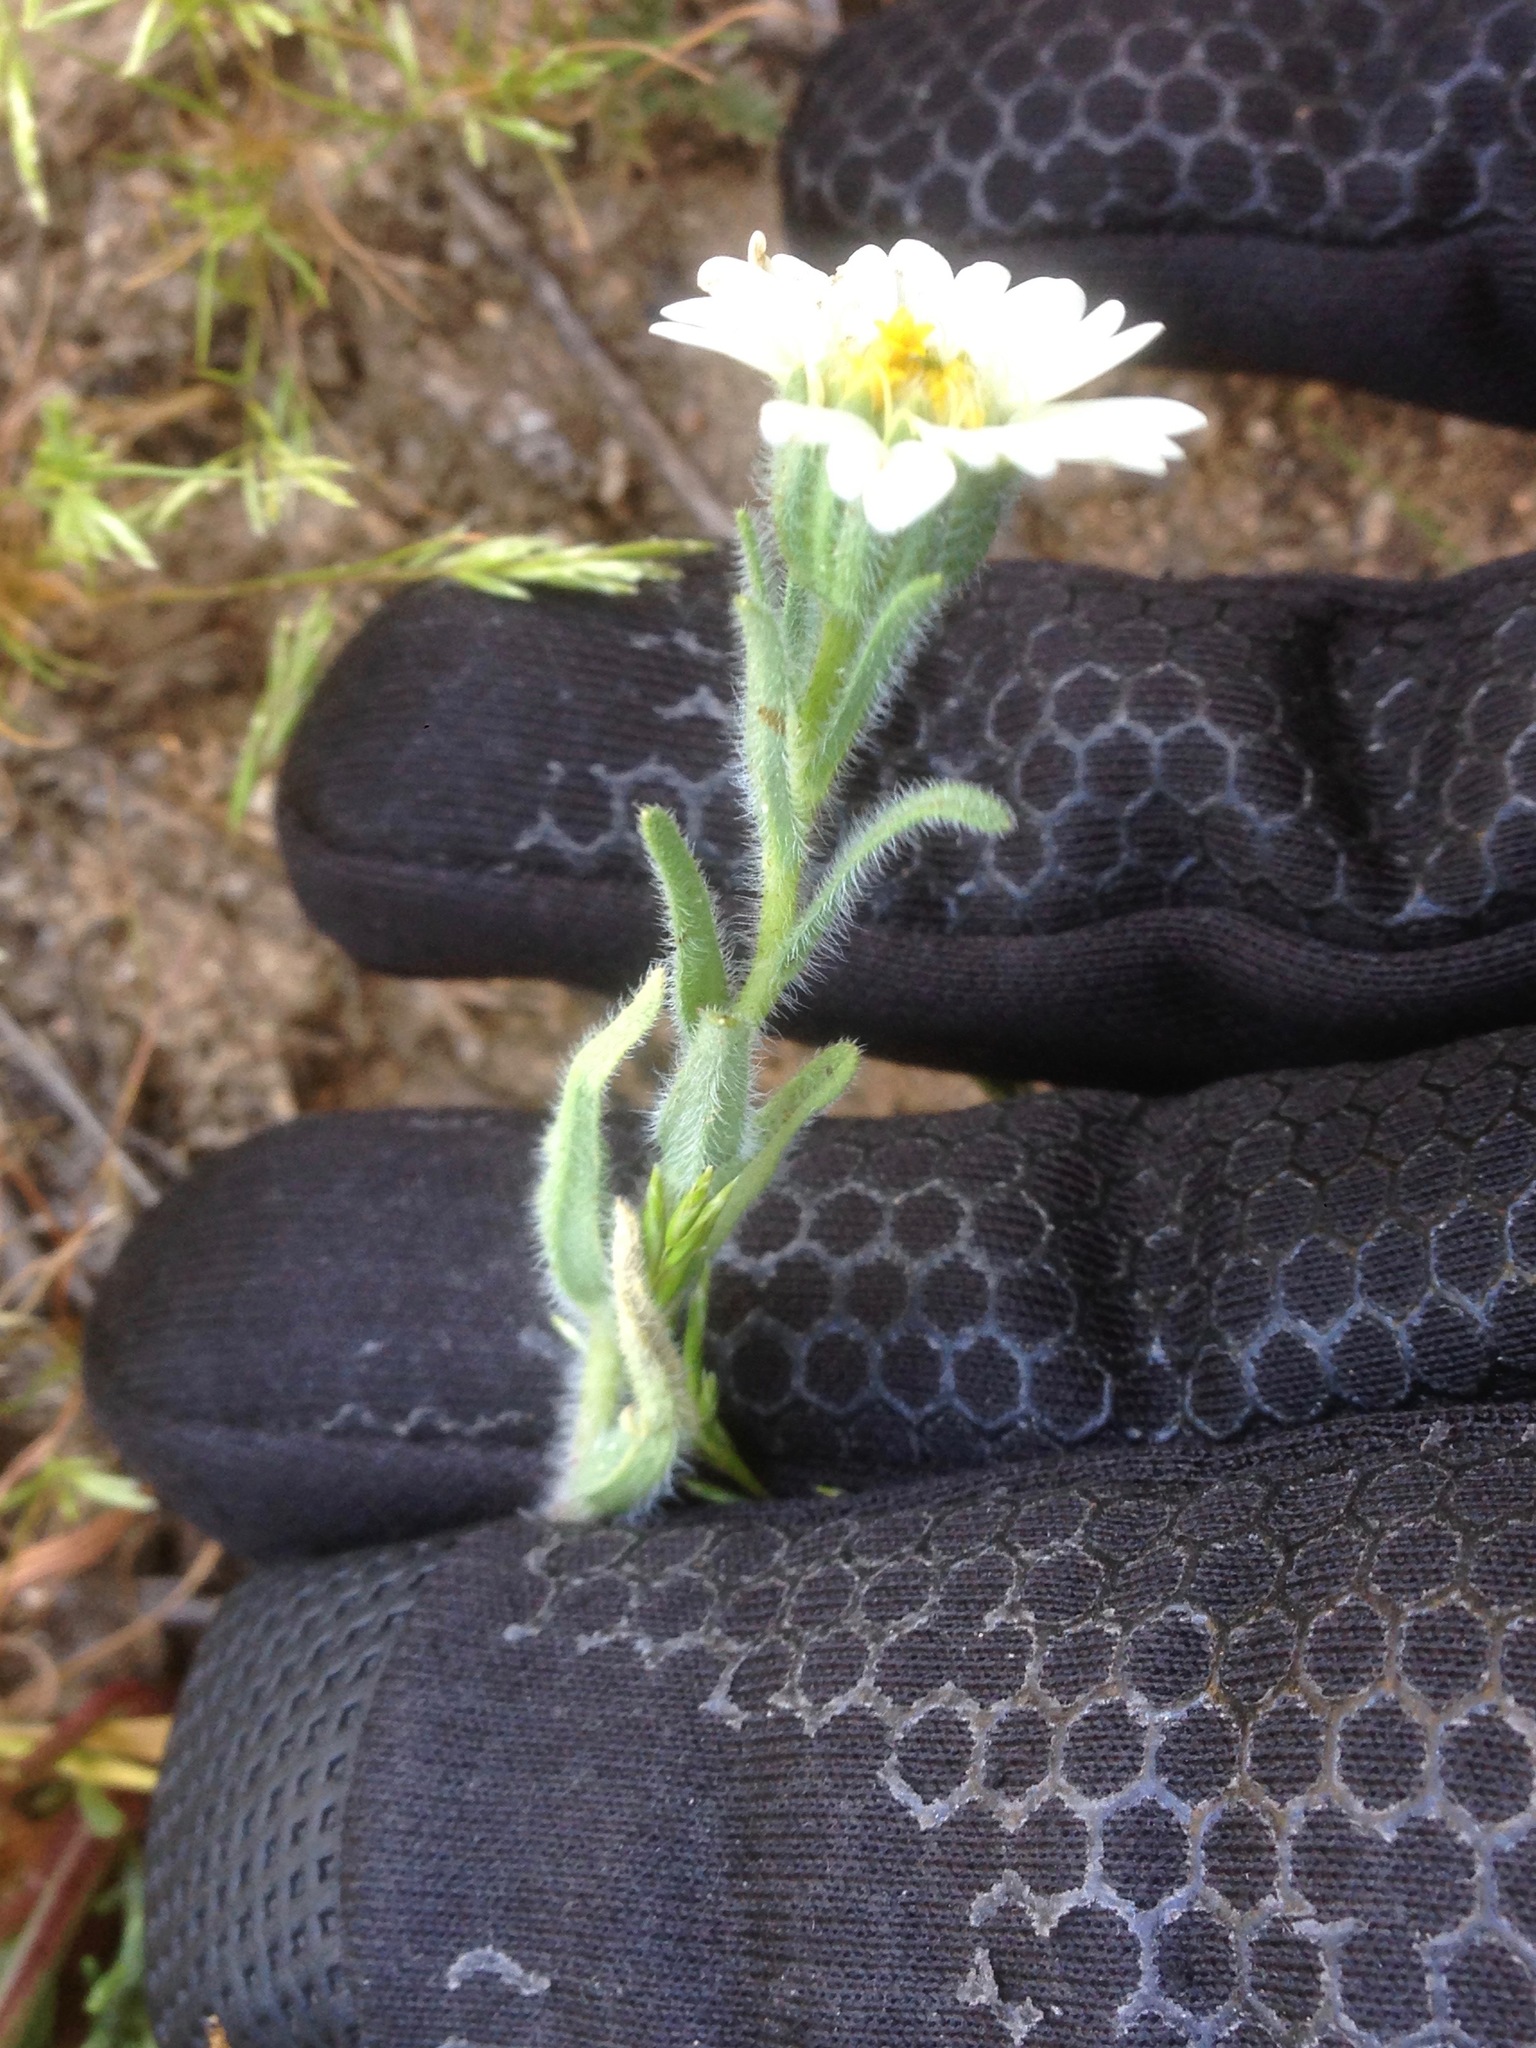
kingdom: Plantae
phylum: Tracheophyta
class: Magnoliopsida
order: Asterales
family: Asteraceae
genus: Layia
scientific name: Layia glandulosa
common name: White layia
